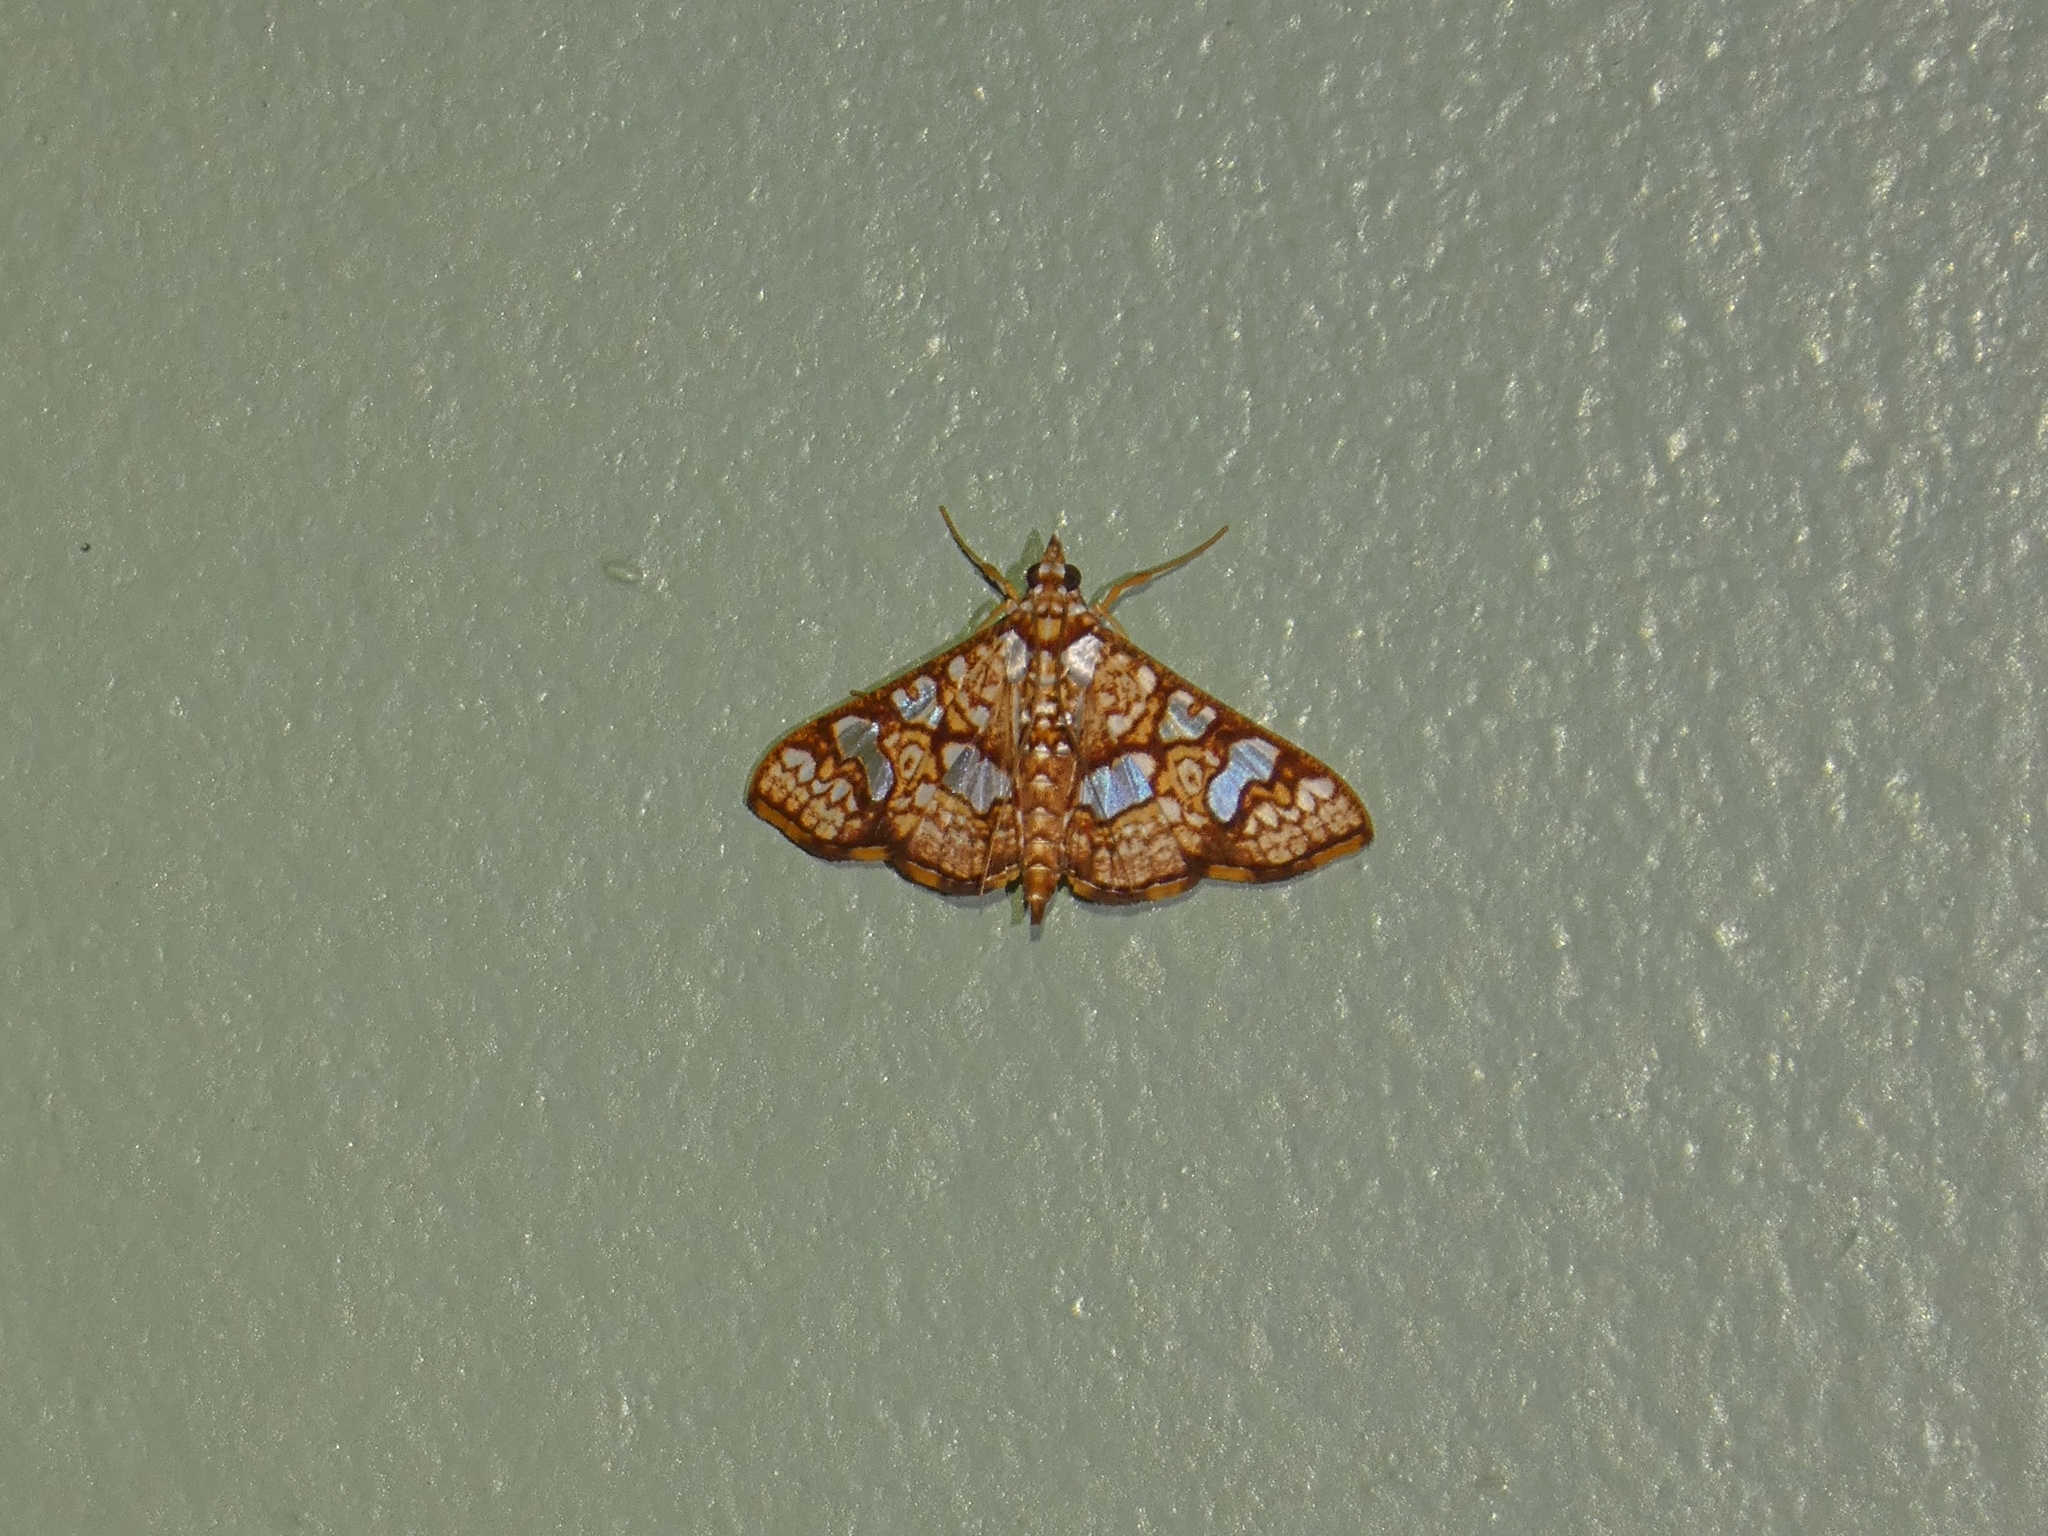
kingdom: Animalia
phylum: Arthropoda
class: Insecta
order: Lepidoptera
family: Crambidae
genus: Glyphodes
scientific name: Glyphodes canthusalis
